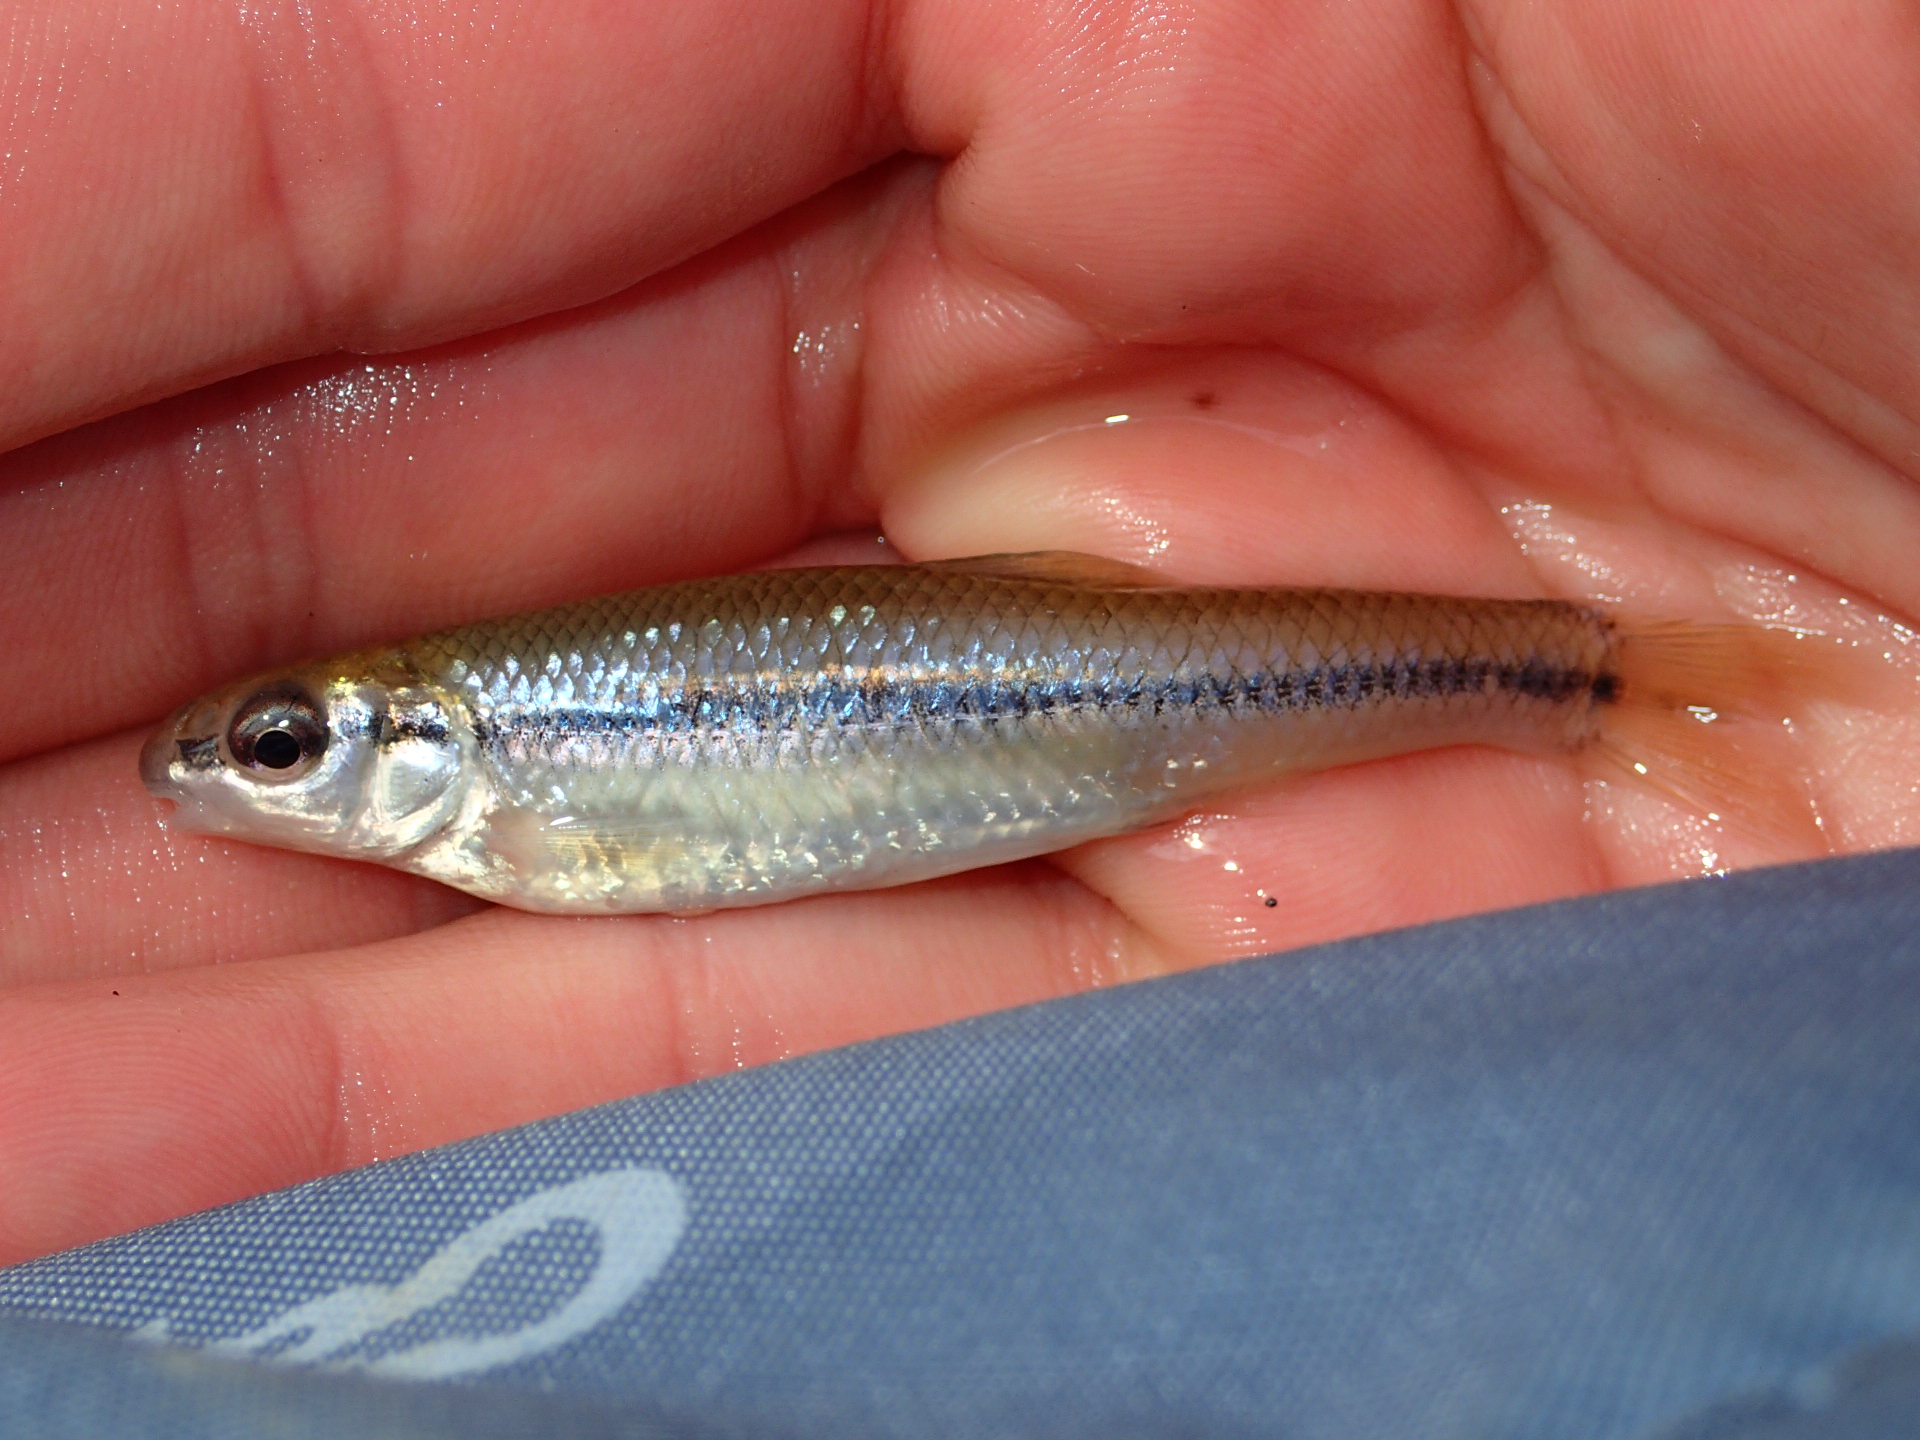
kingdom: Animalia
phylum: Chordata
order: Cypriniformes
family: Cyprinidae
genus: Pimephales
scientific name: Pimephales notatus
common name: Bluntnose minnow
